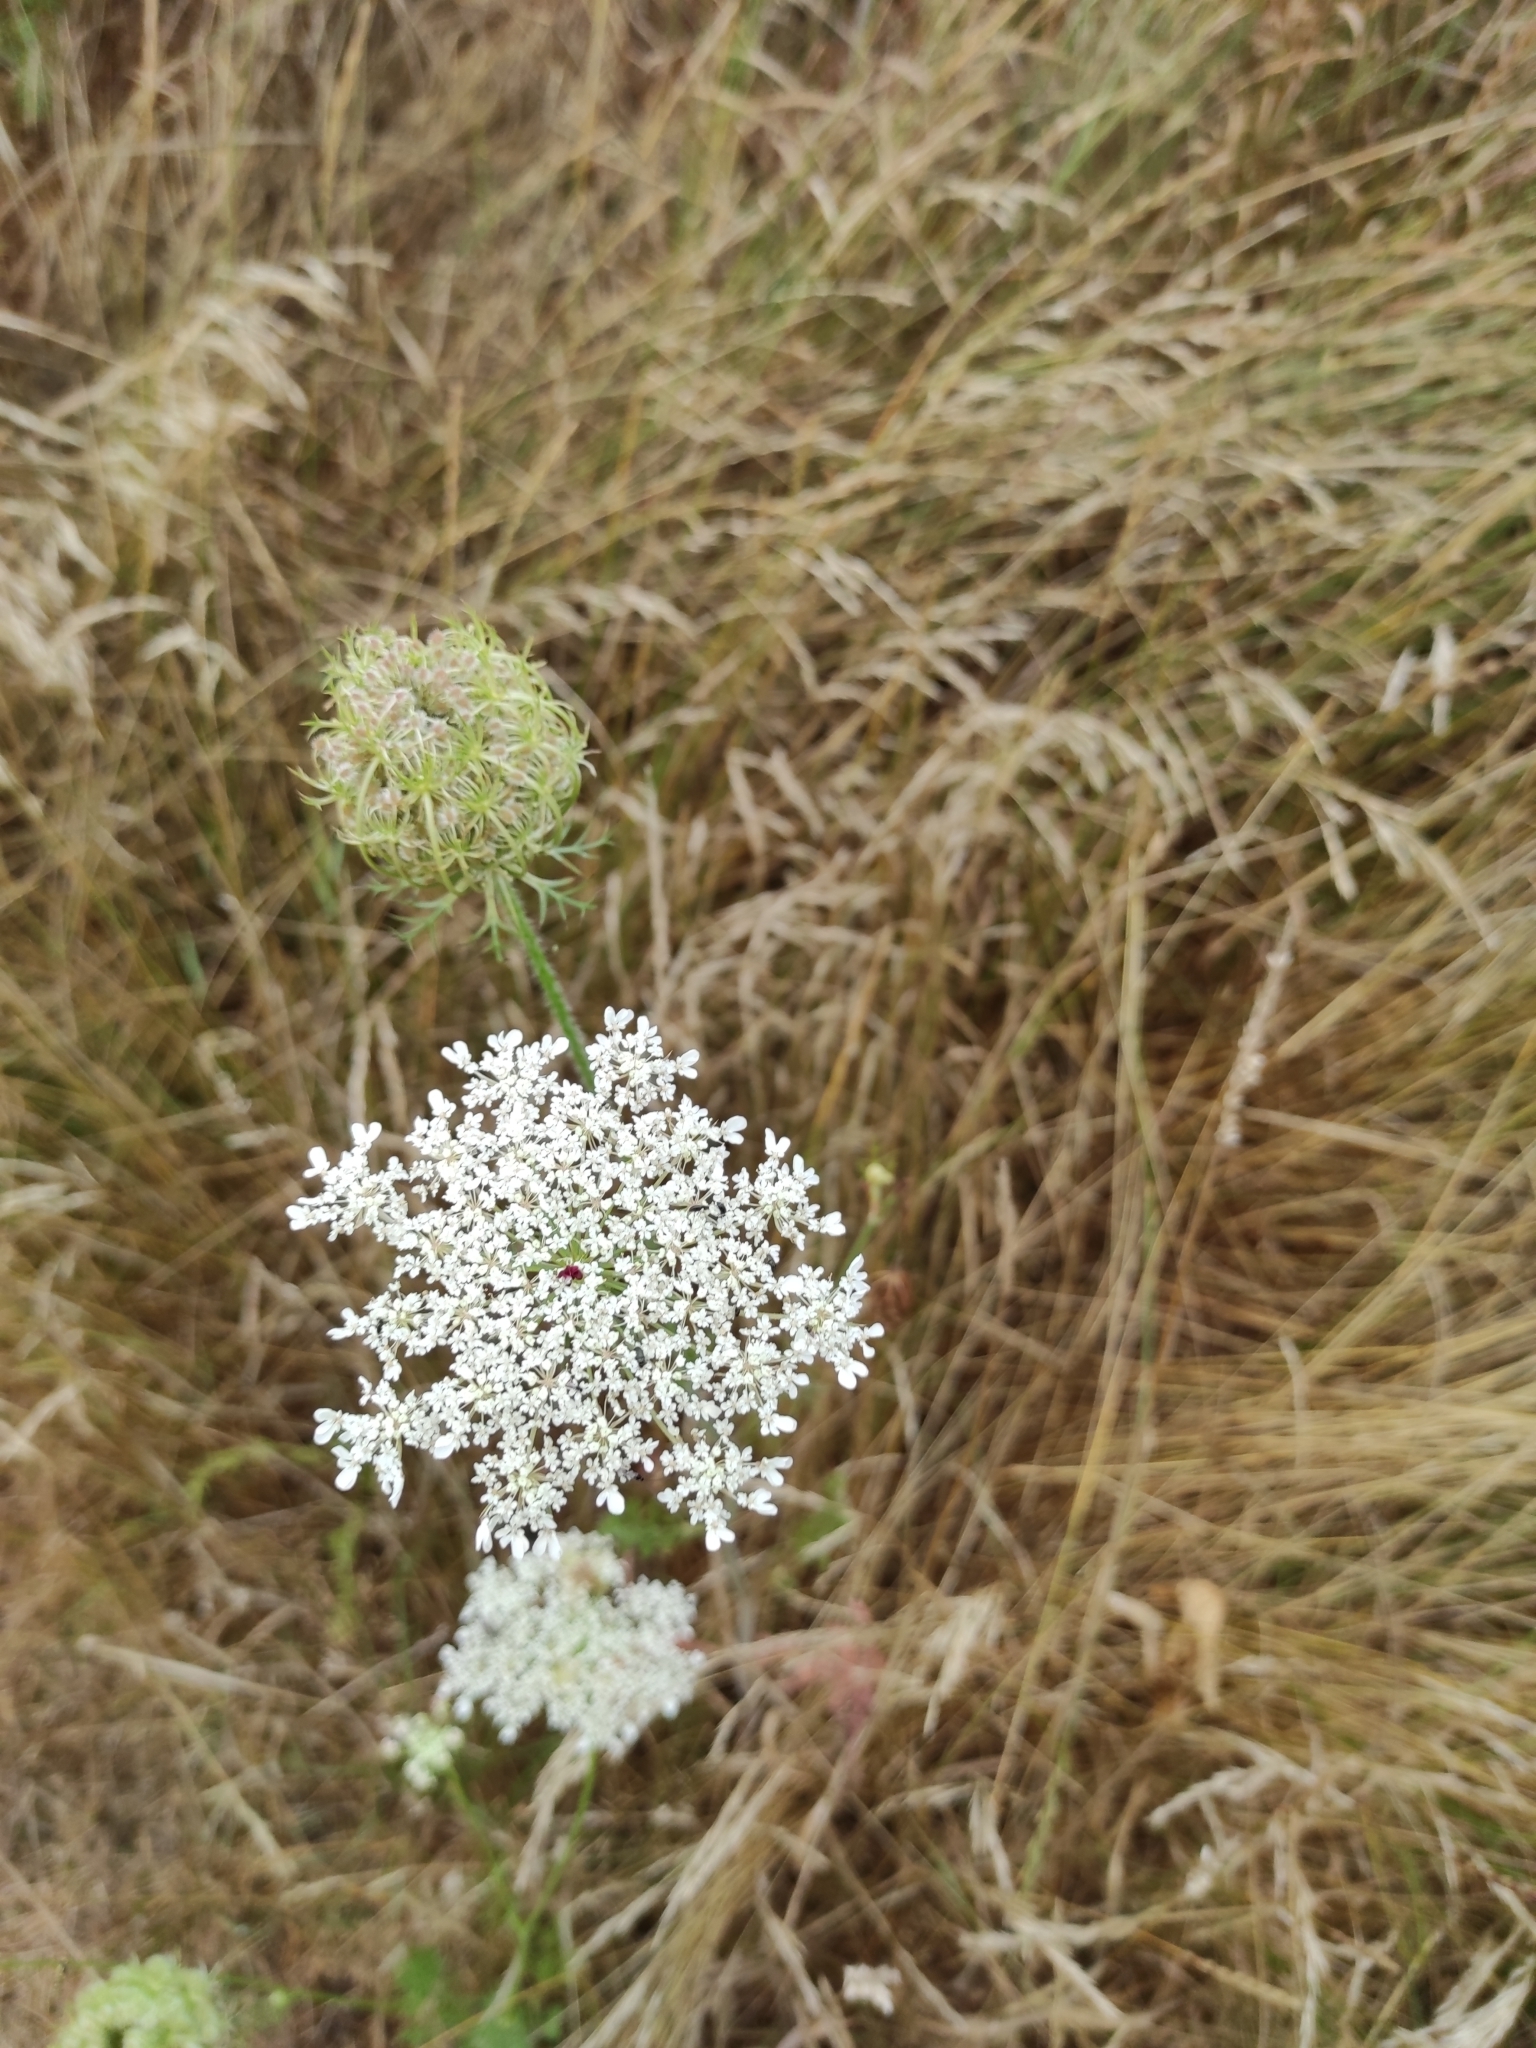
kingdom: Plantae
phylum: Tracheophyta
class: Magnoliopsida
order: Apiales
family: Apiaceae
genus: Daucus
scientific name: Daucus carota
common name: Wild carrot
